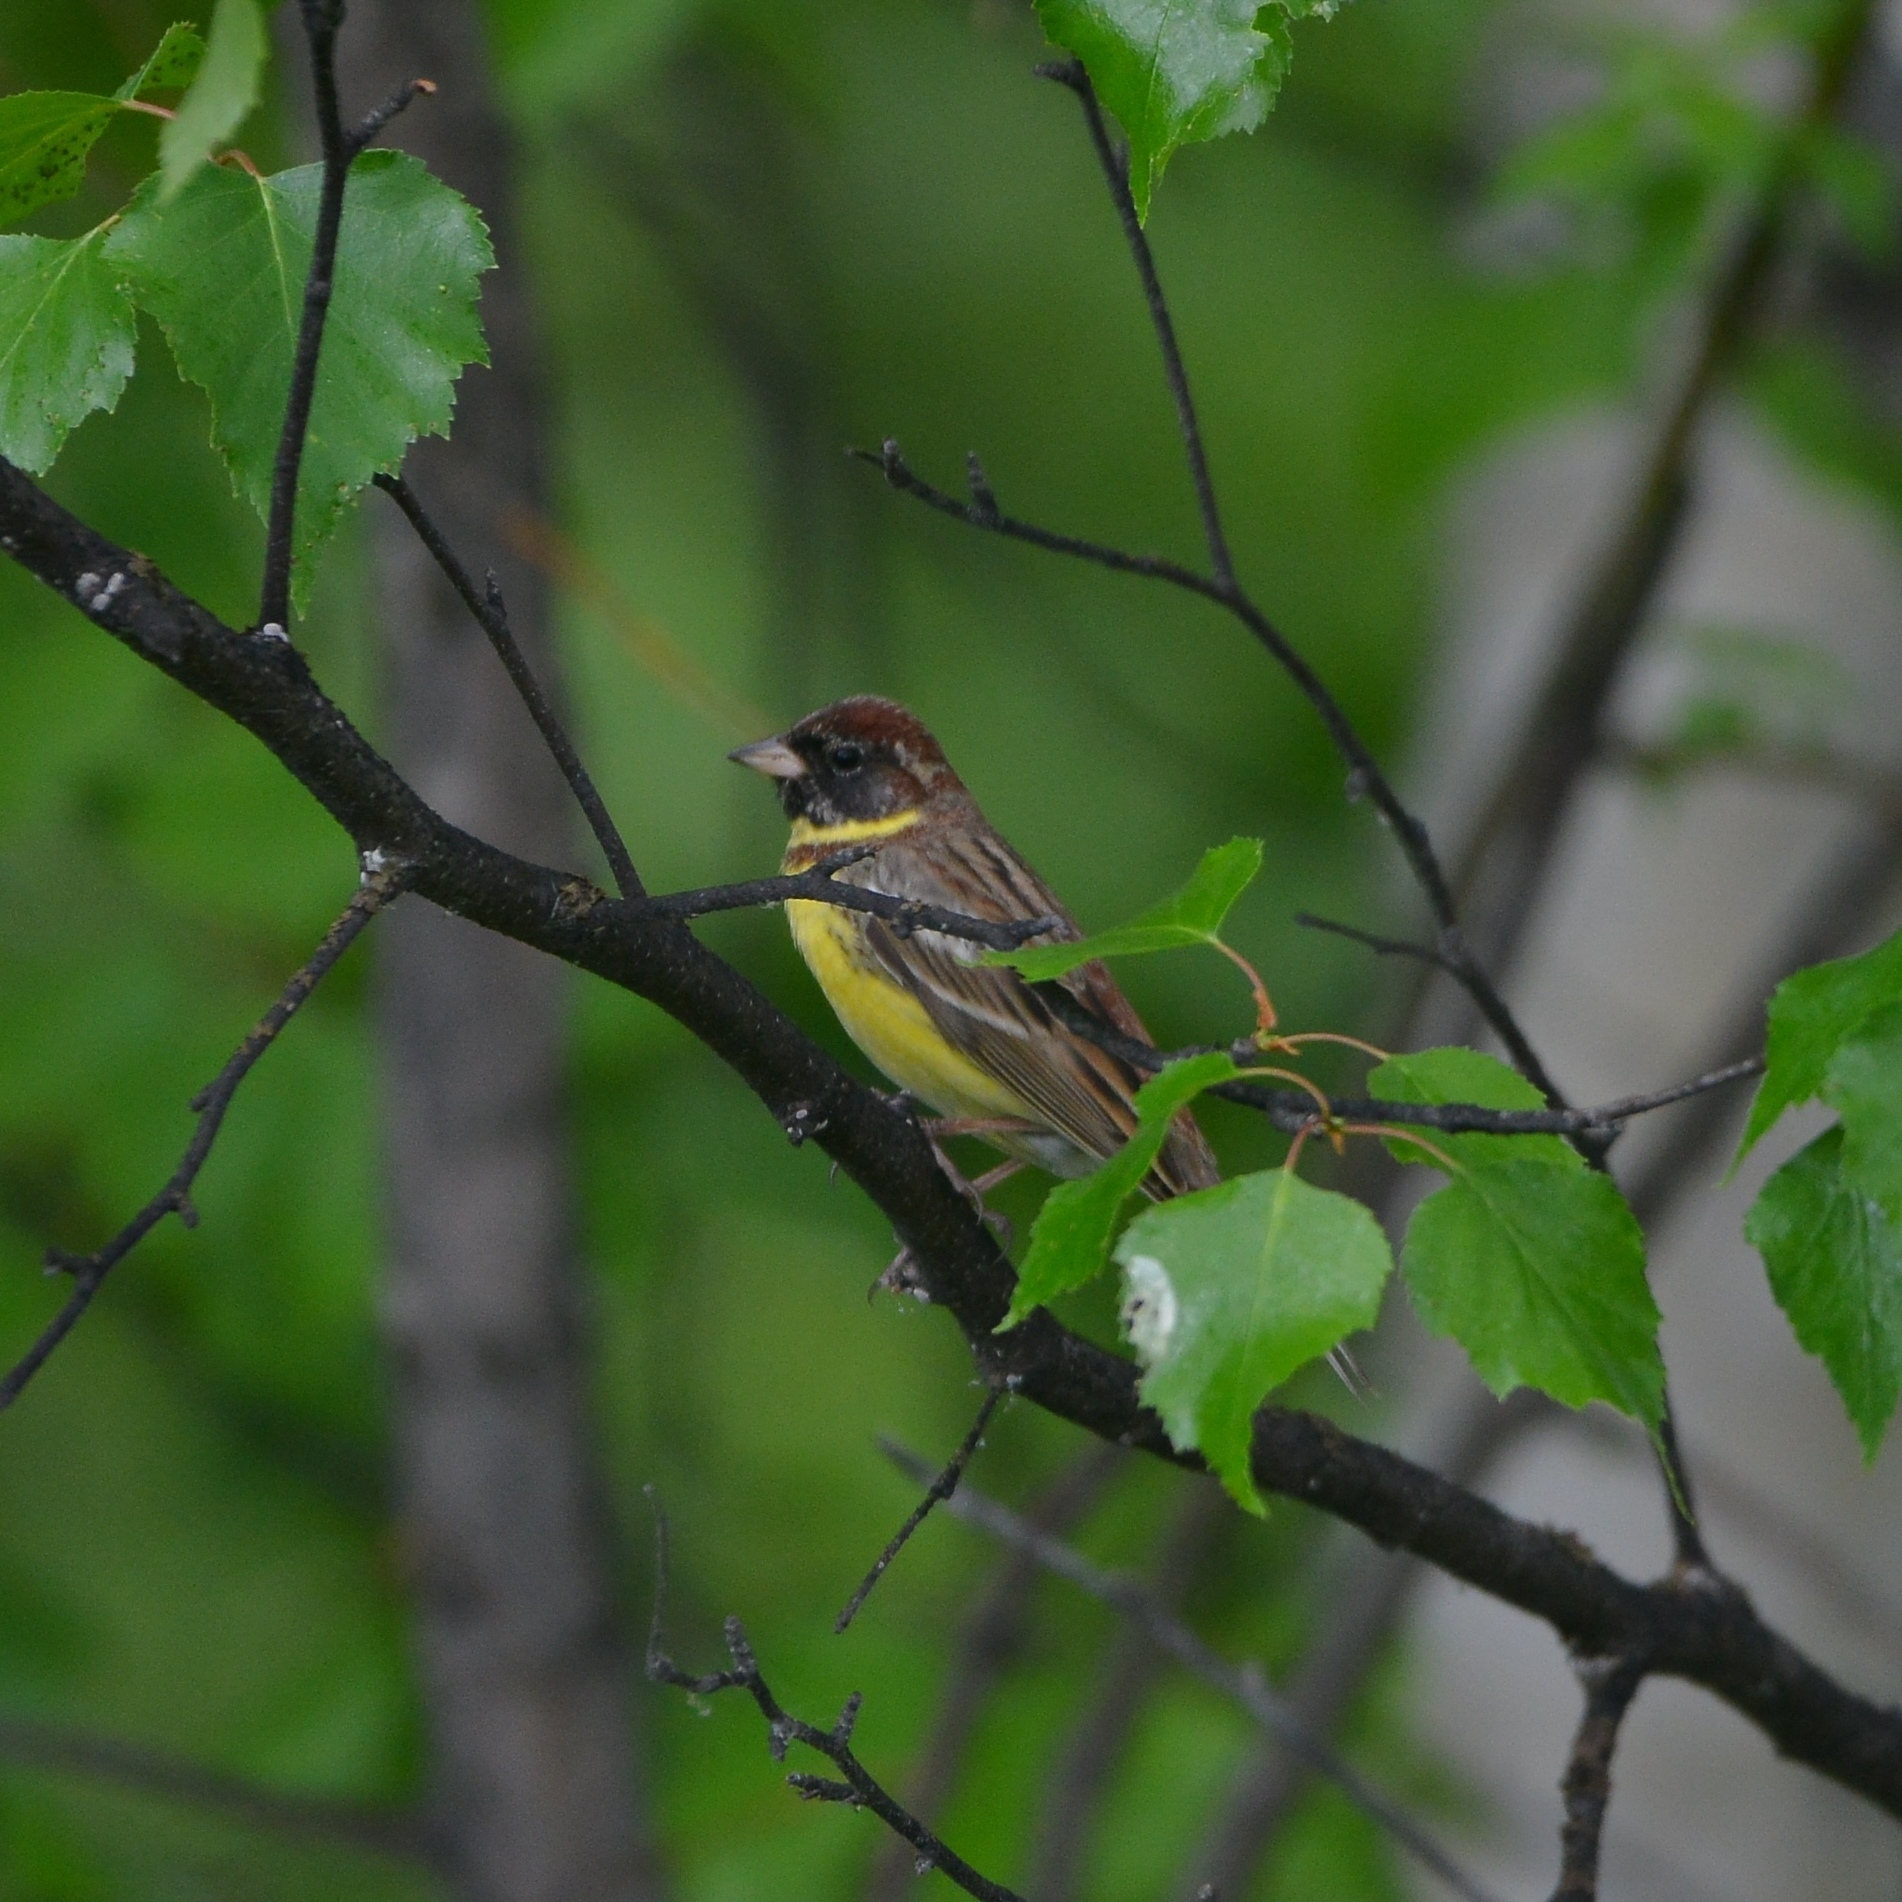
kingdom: Animalia
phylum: Chordata
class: Aves
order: Passeriformes
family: Emberizidae
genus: Emberiza
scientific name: Emberiza aureola
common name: Yellow-breasted bunting
